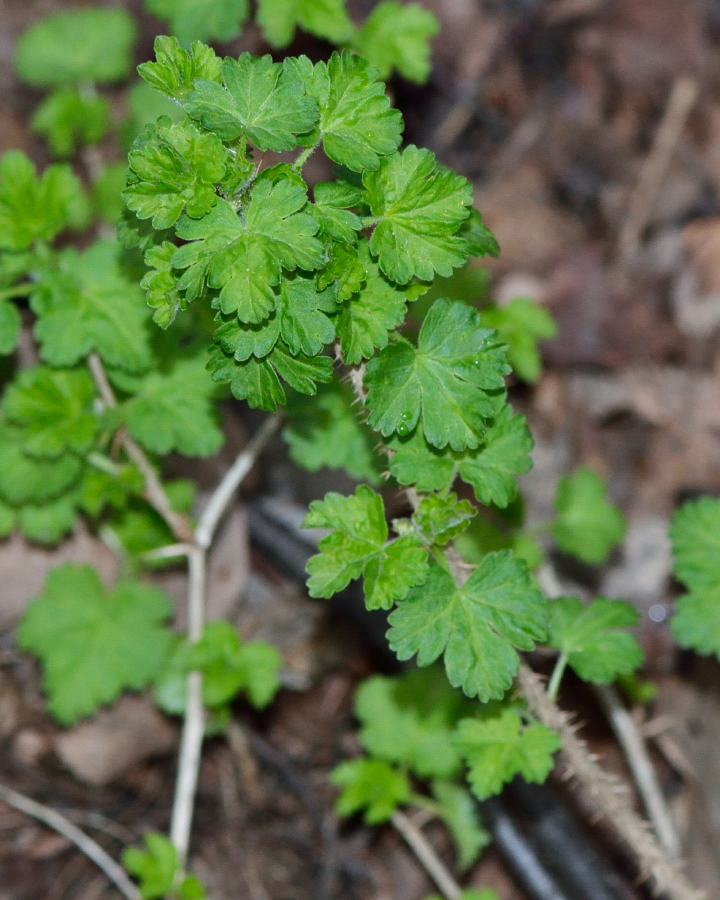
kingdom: Plantae
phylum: Tracheophyta
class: Magnoliopsida
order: Saxifragales
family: Grossulariaceae
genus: Ribes
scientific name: Ribes uva-crispa
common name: Gooseberry
